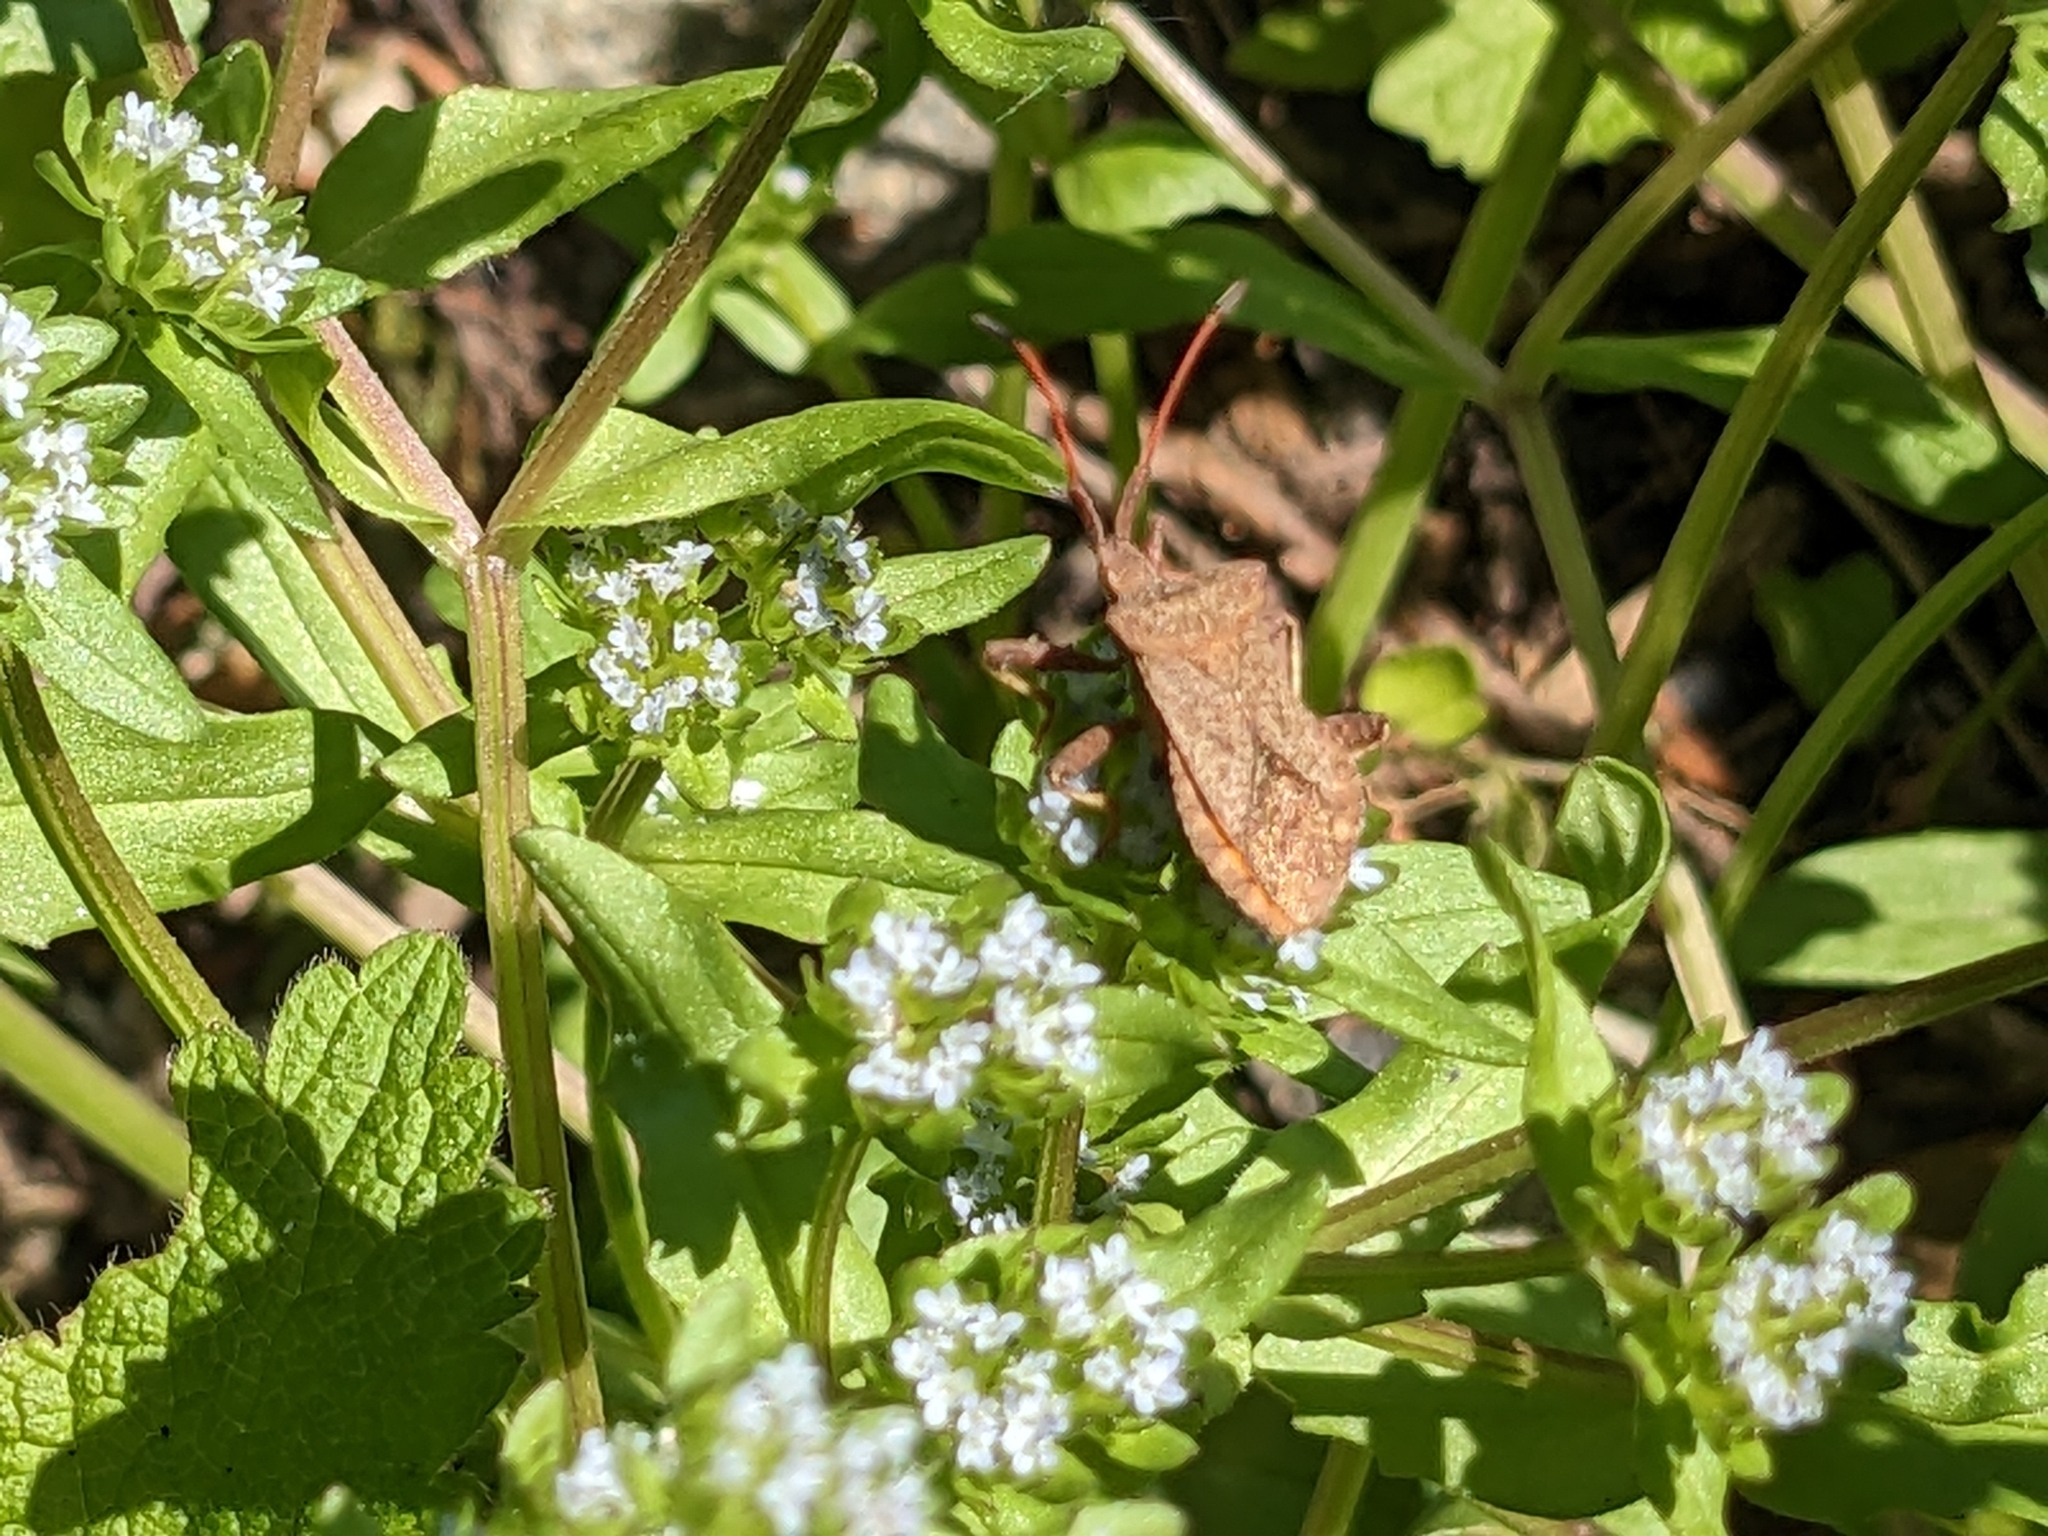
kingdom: Animalia
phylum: Arthropoda
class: Insecta
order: Hemiptera
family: Coreidae
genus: Coreus
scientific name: Coreus marginatus
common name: Dock bug
